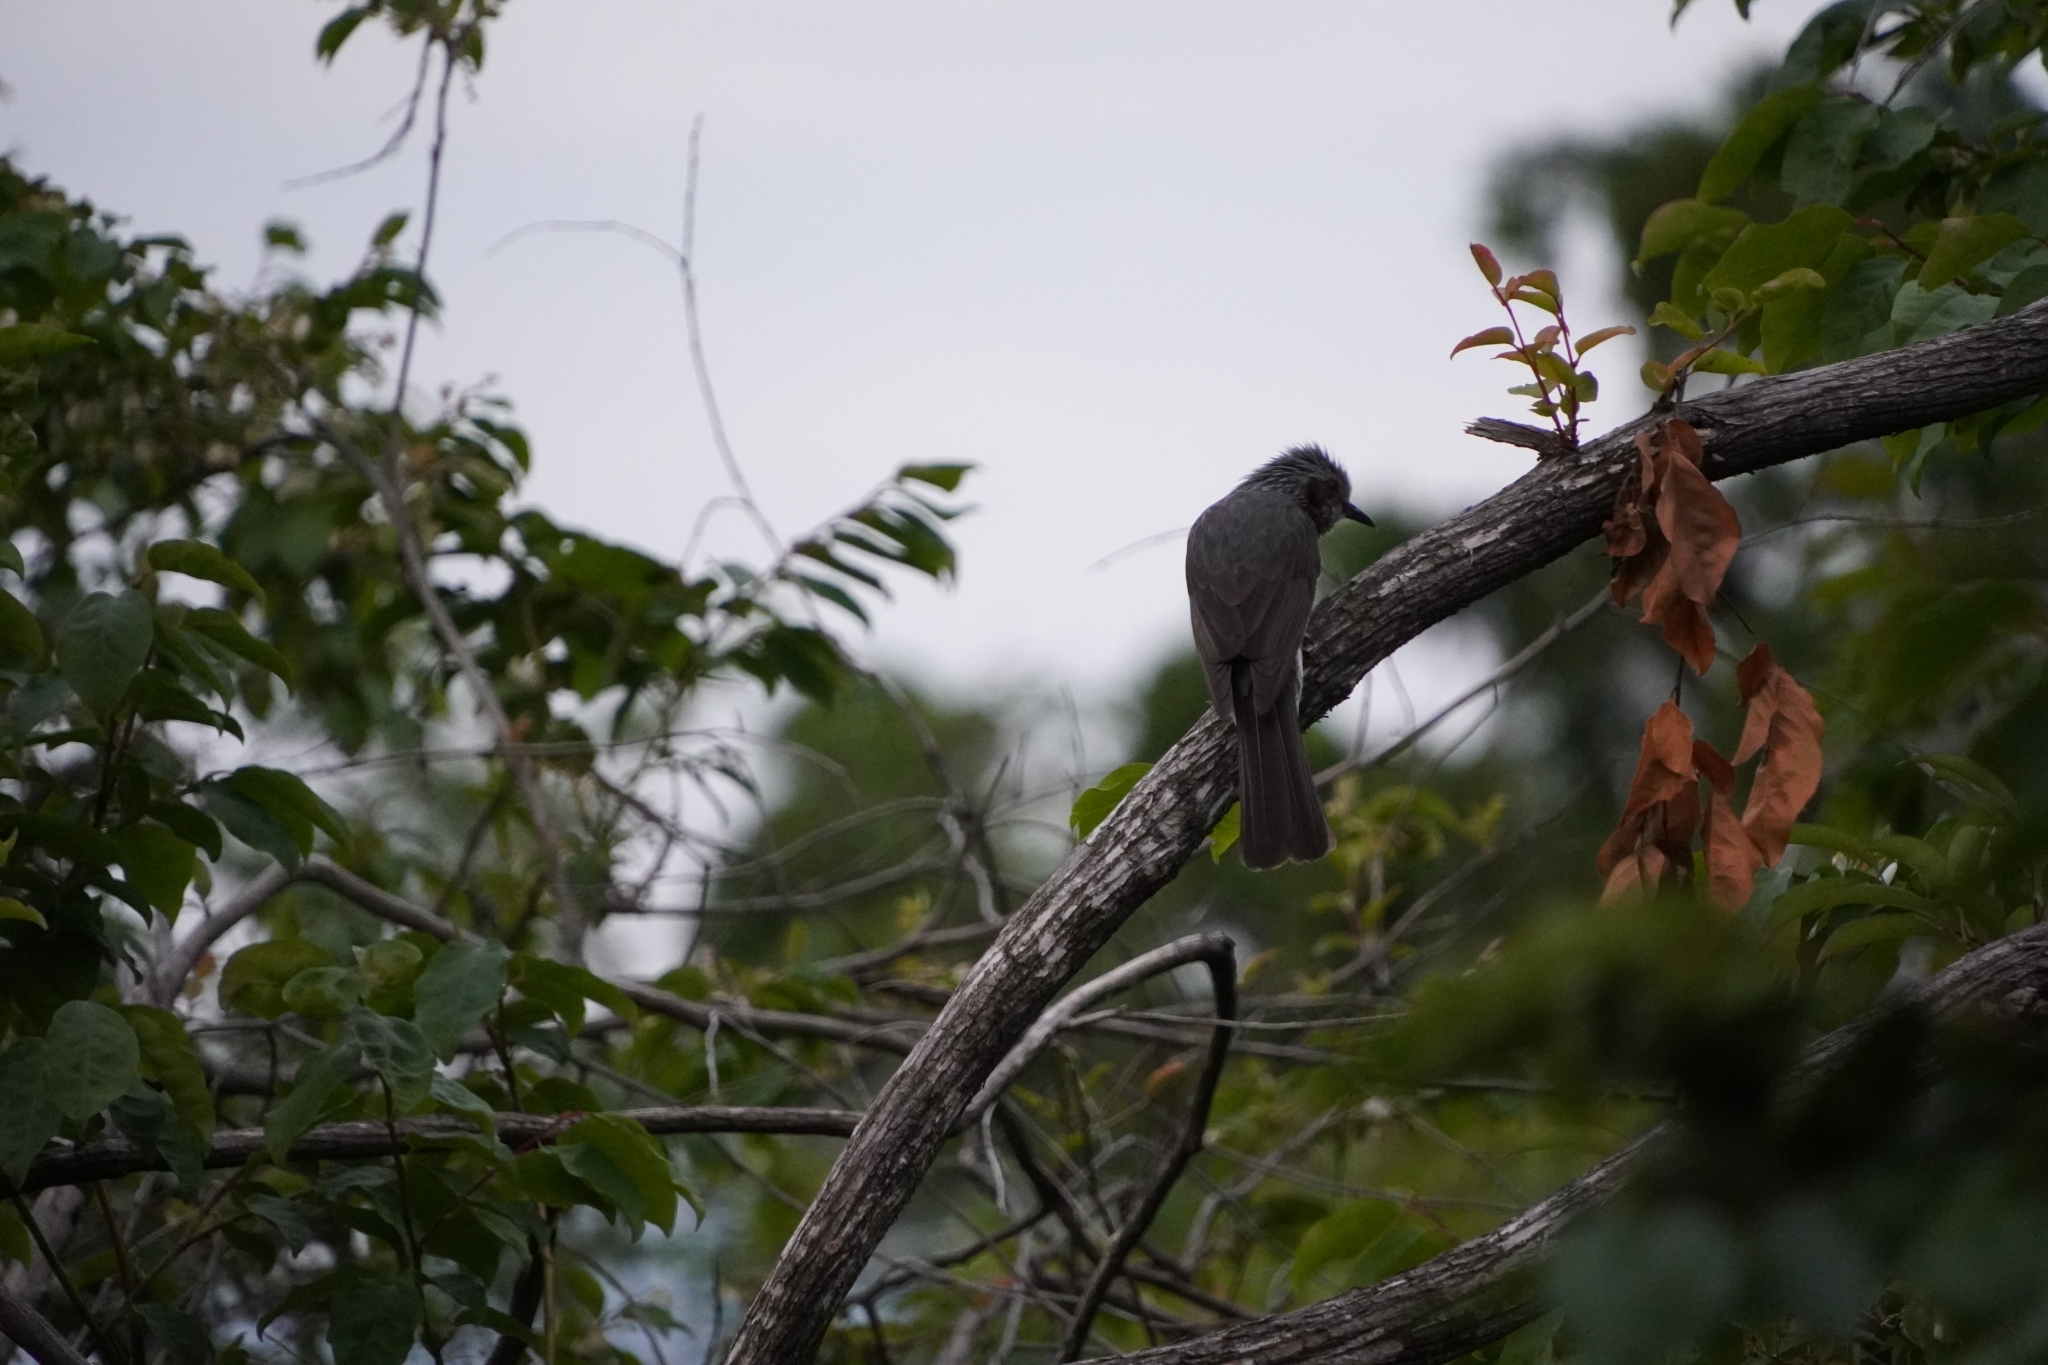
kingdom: Animalia
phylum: Chordata
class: Aves
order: Passeriformes
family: Pycnonotidae
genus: Hypsipetes
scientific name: Hypsipetes amaurotis
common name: Brown-eared bulbul
